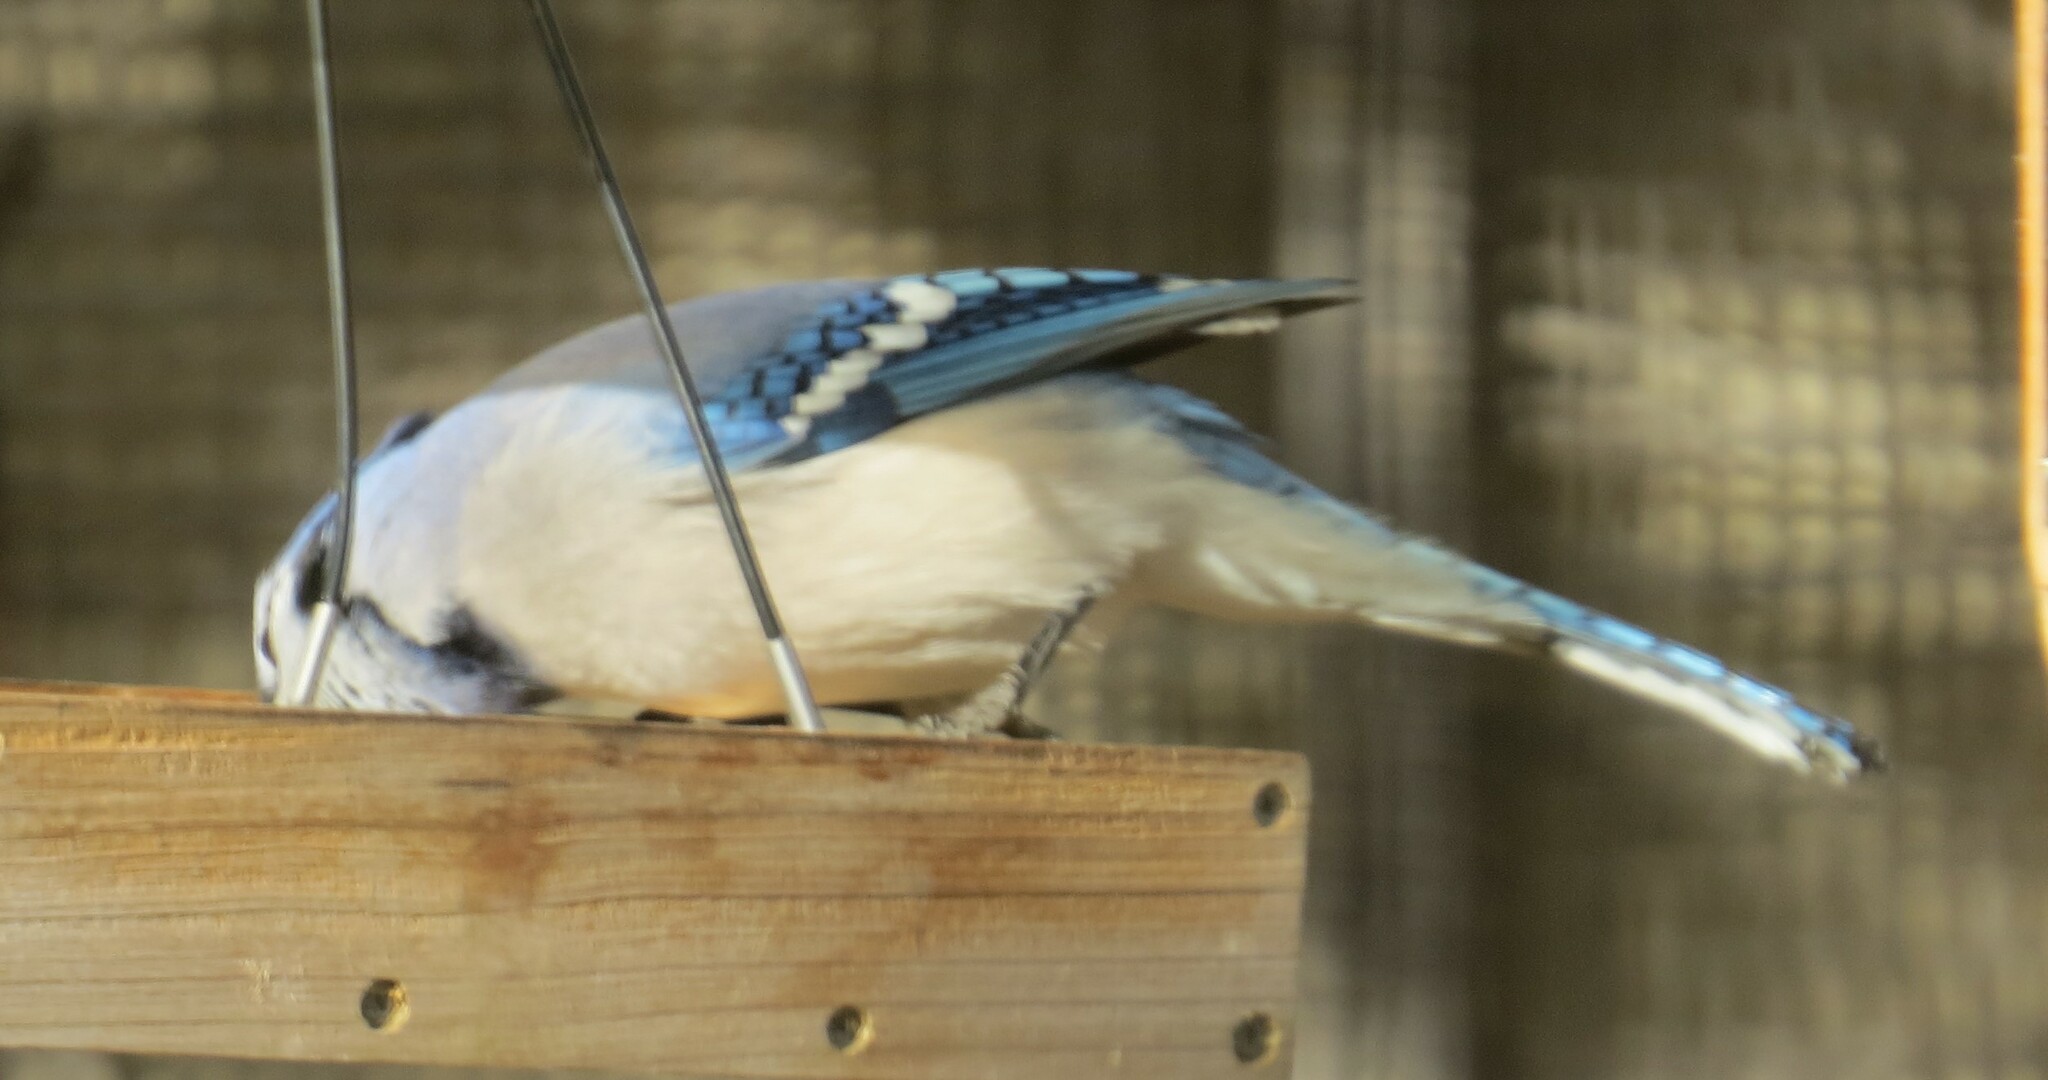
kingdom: Animalia
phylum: Chordata
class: Aves
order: Passeriformes
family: Corvidae
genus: Cyanocitta
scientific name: Cyanocitta cristata
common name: Blue jay
